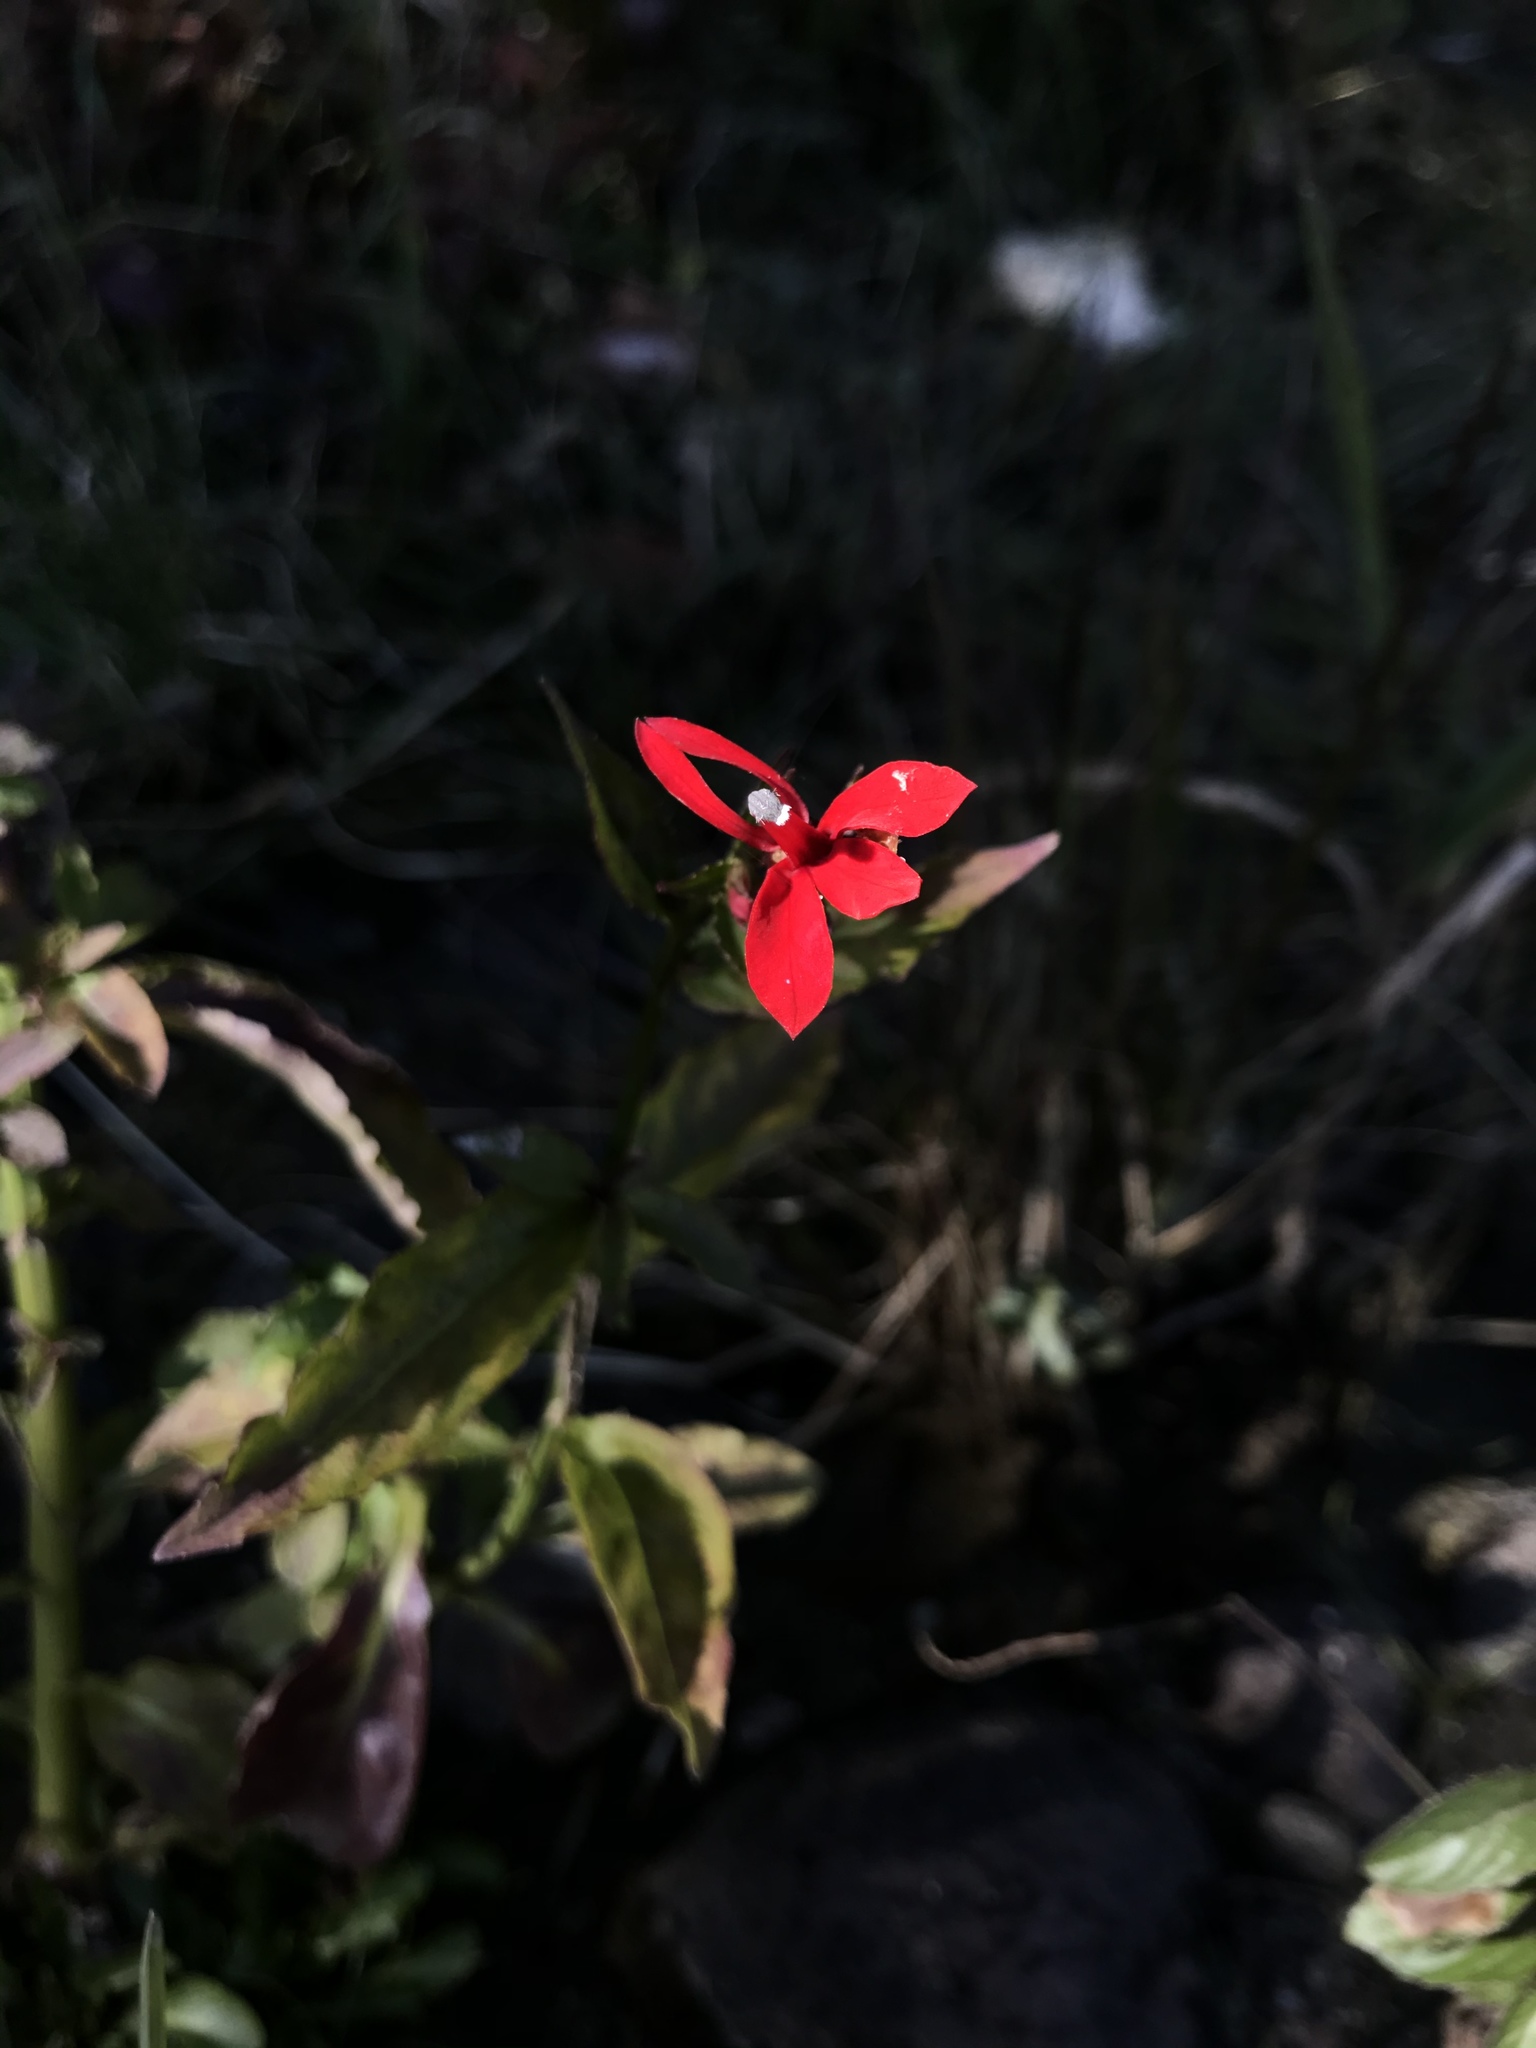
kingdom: Plantae
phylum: Tracheophyta
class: Magnoliopsida
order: Asterales
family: Campanulaceae
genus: Lobelia
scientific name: Lobelia cardinalis
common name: Cardinal flower
